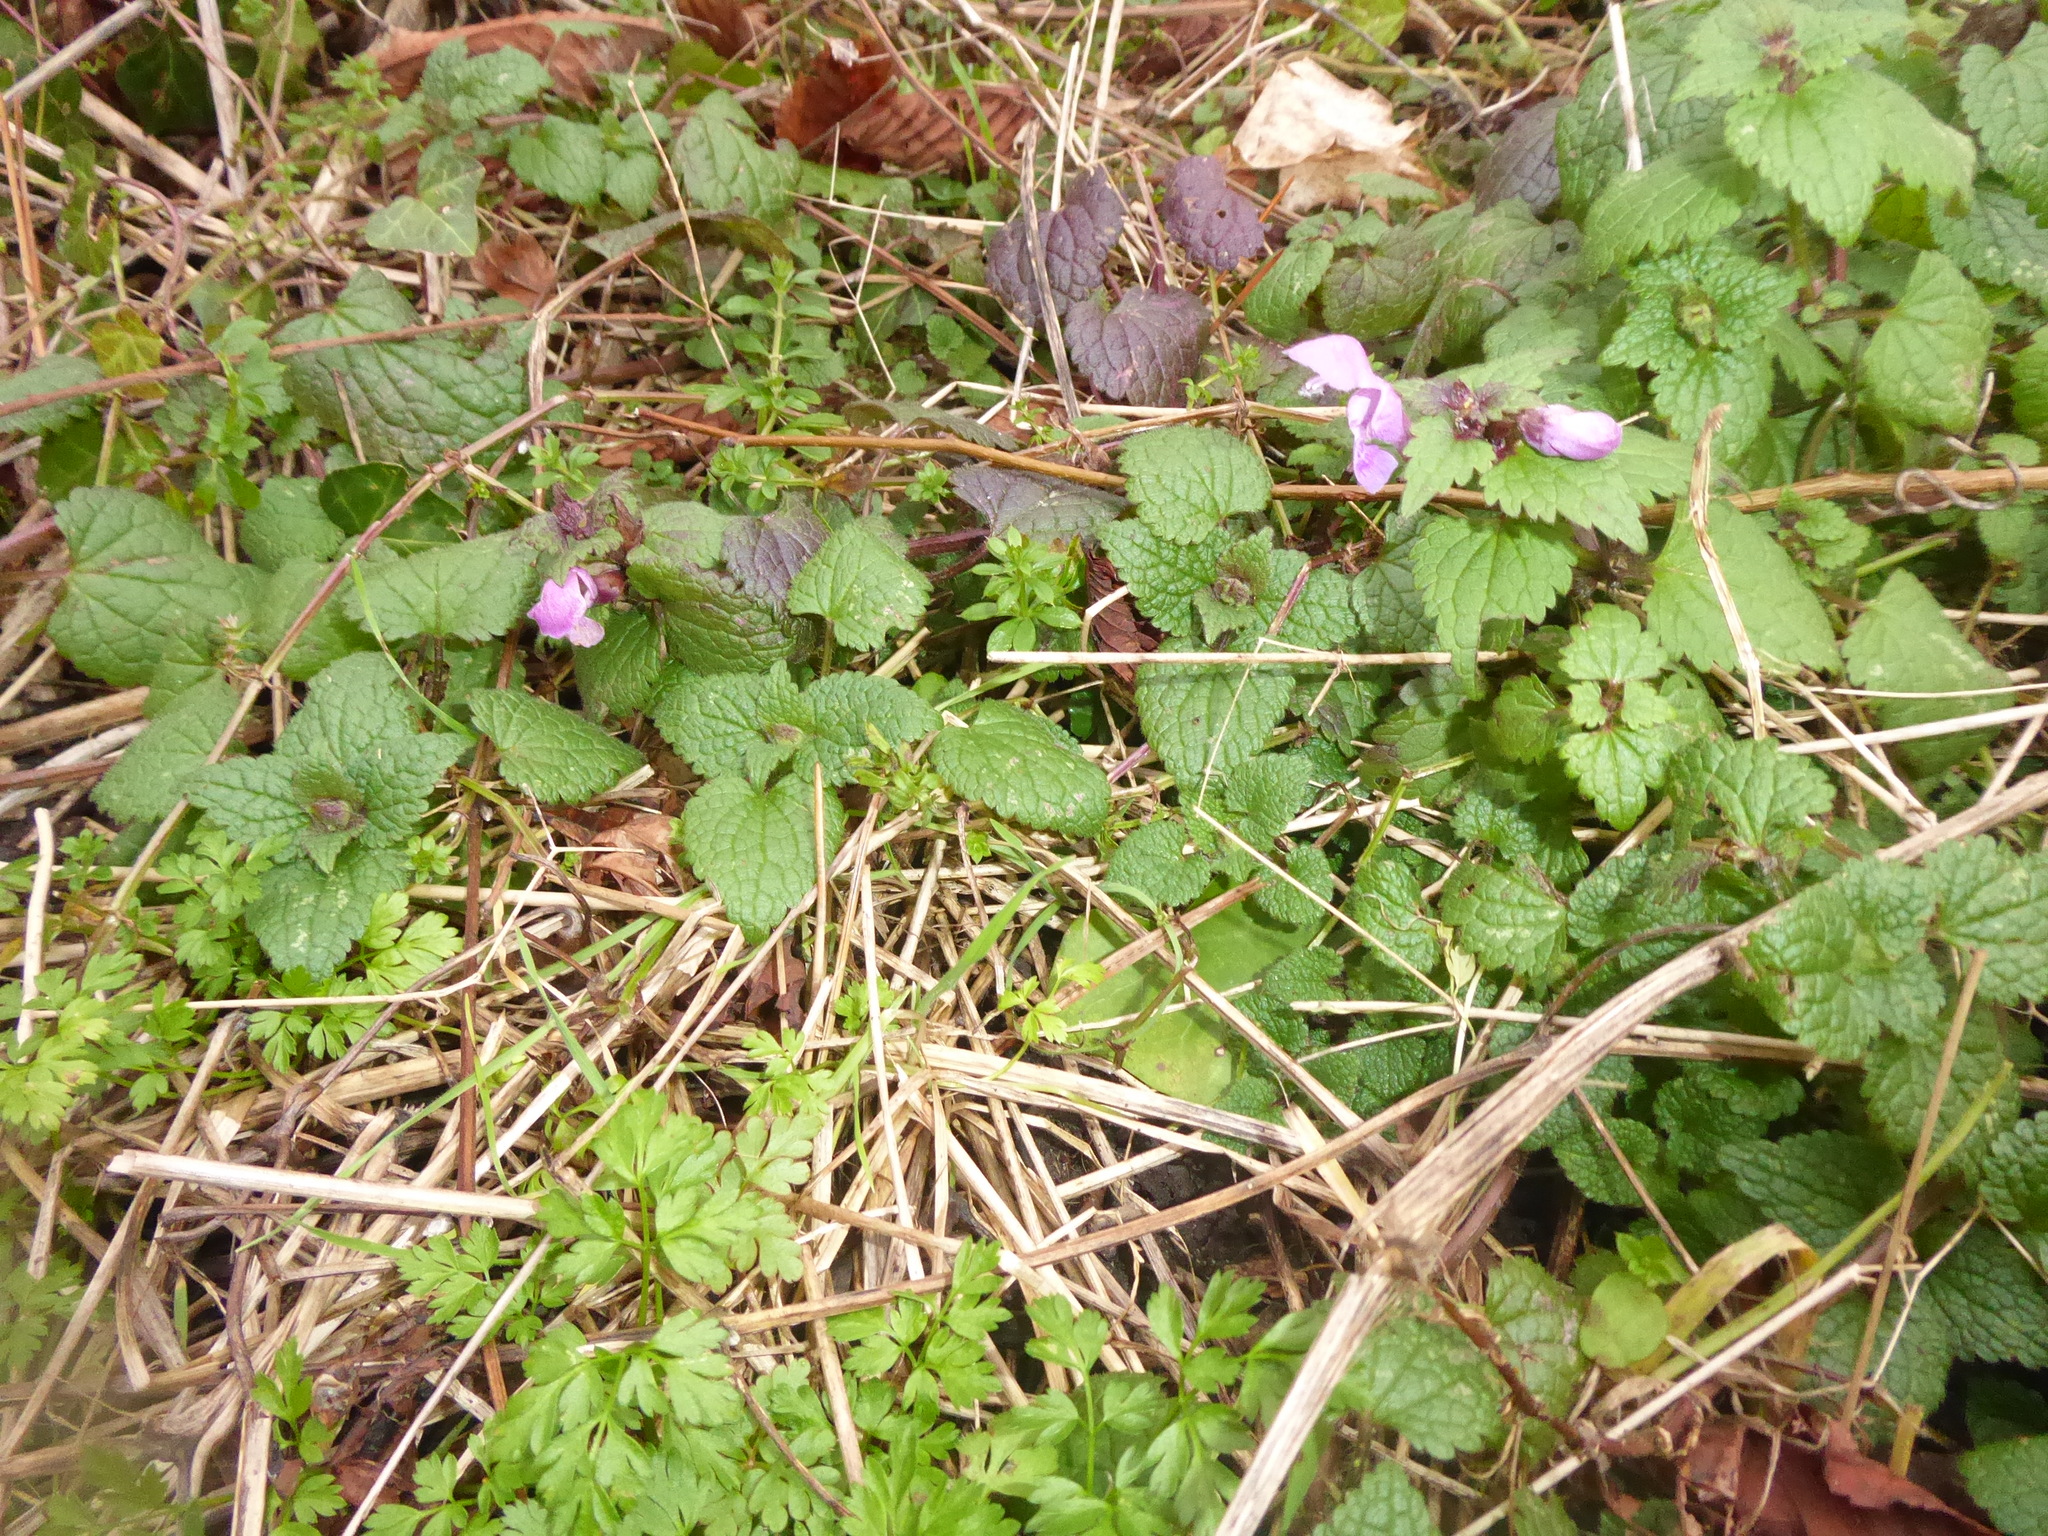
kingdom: Plantae
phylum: Tracheophyta
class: Magnoliopsida
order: Lamiales
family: Lamiaceae
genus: Lamium
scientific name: Lamium maculatum
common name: Spotted dead-nettle
